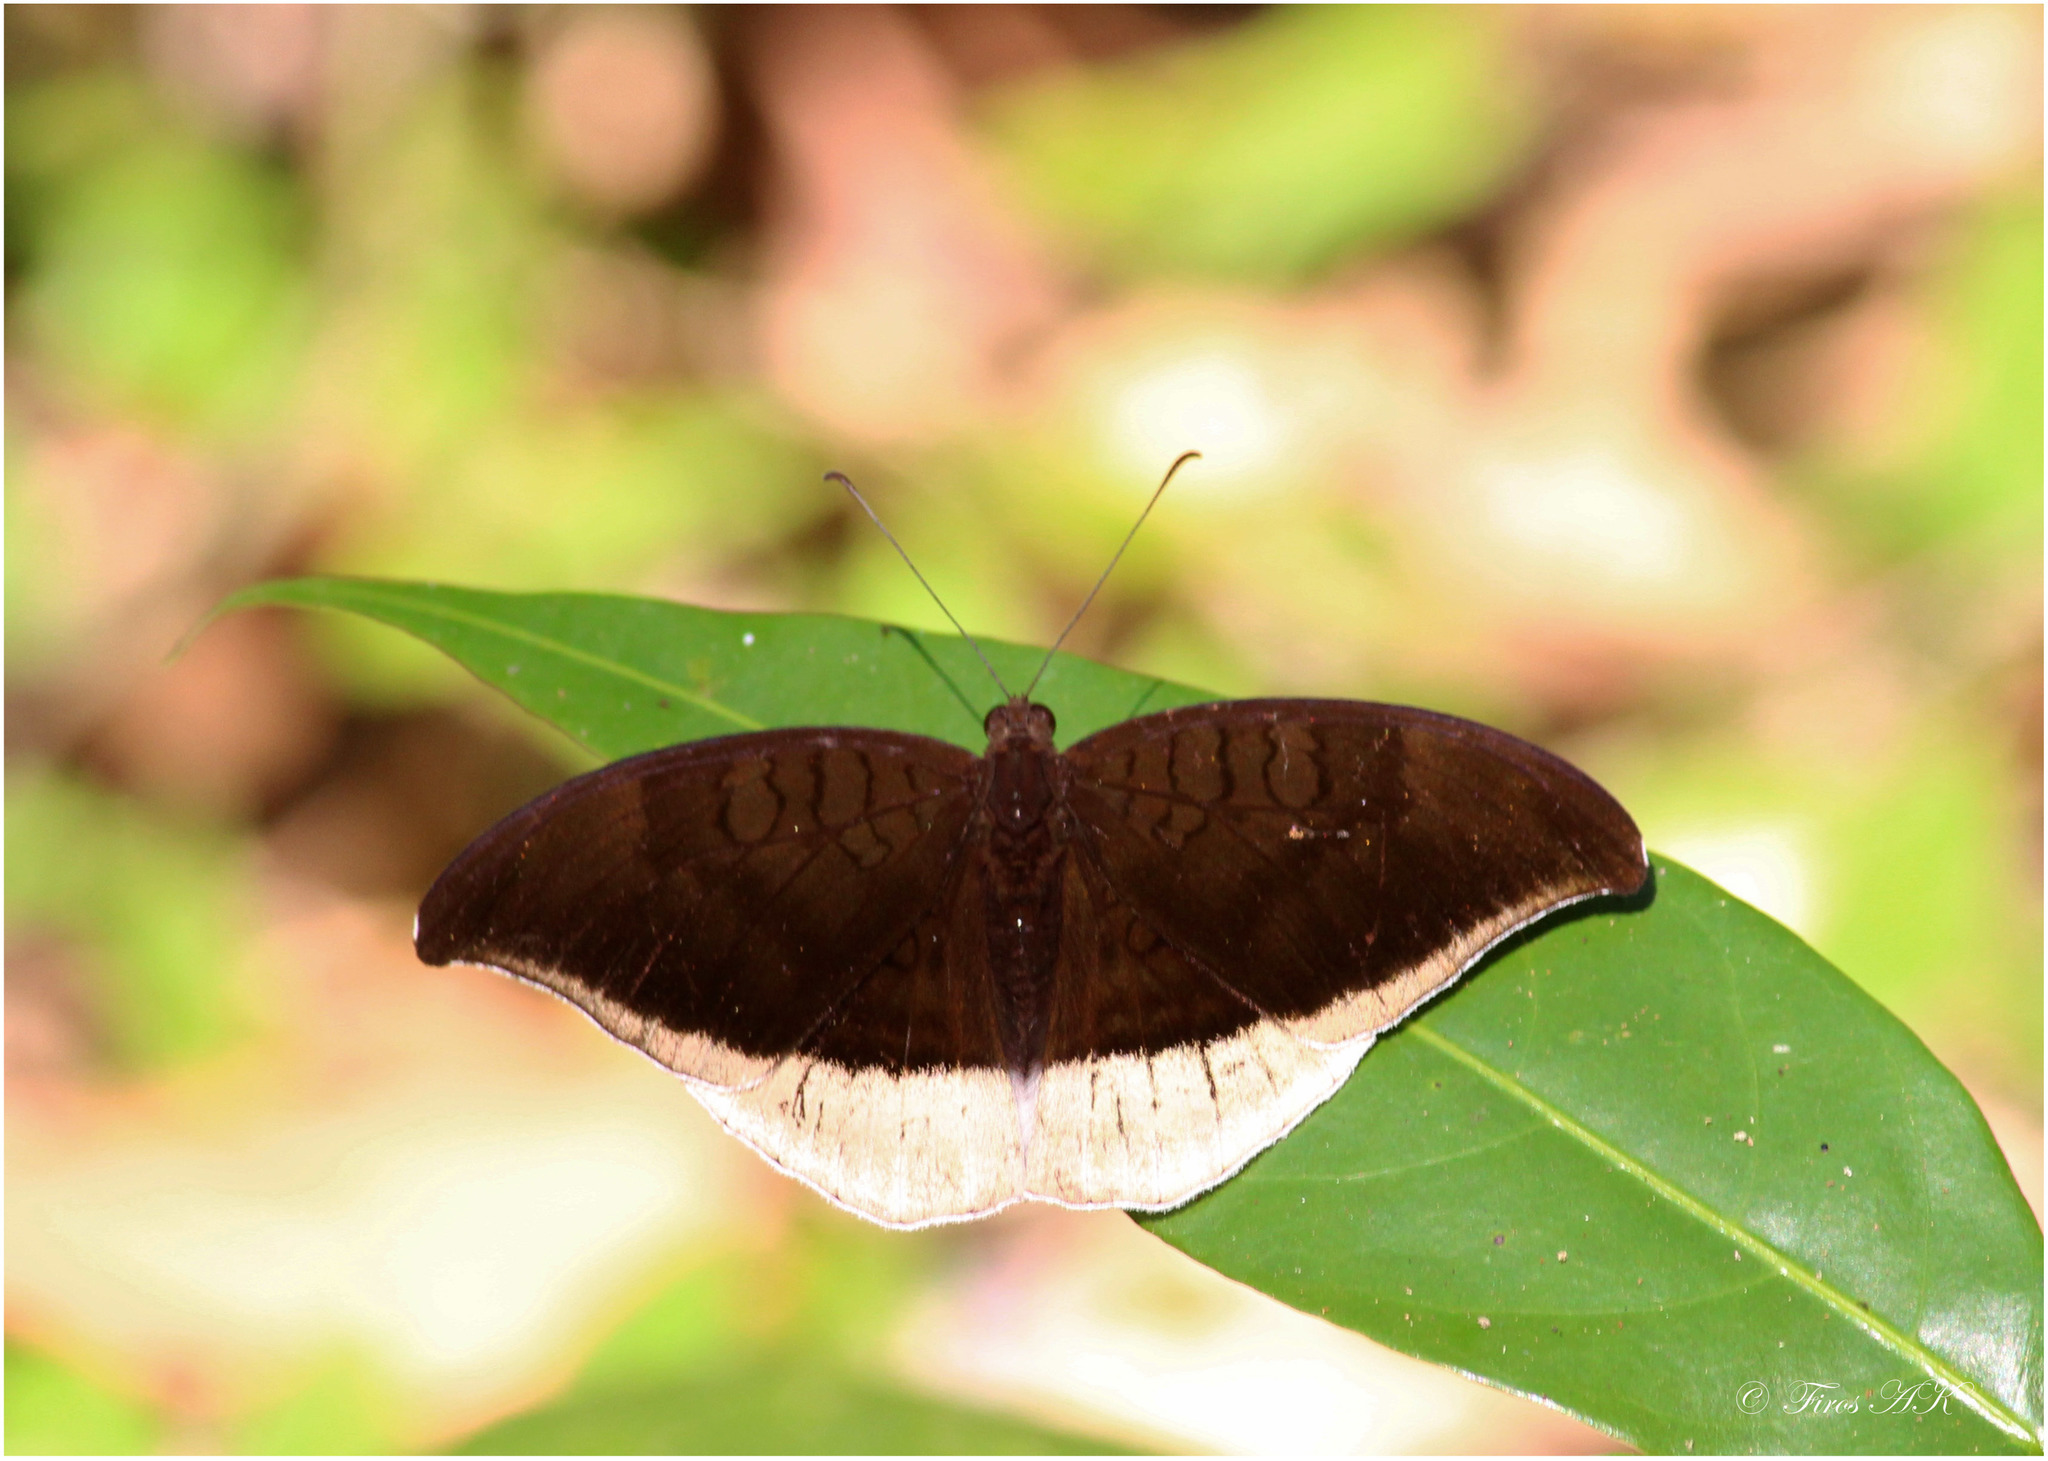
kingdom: Animalia
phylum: Arthropoda
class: Insecta
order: Lepidoptera
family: Nymphalidae
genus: Tanaecia
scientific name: Tanaecia lepidea
